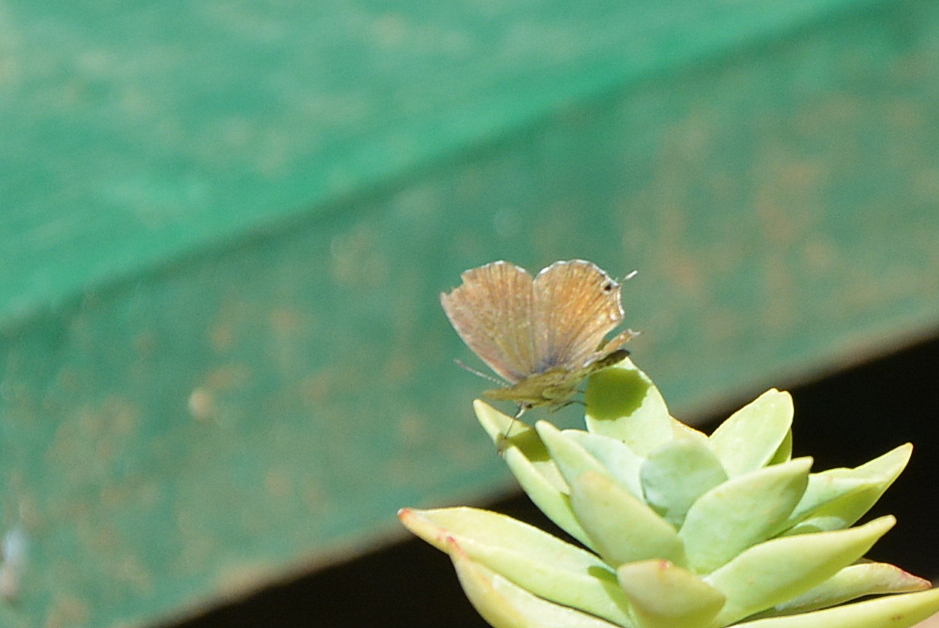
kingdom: Animalia
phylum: Arthropoda
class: Insecta
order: Lepidoptera
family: Lycaenidae
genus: Cacyreus
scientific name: Cacyreus marshalli
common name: Geranium bronze
